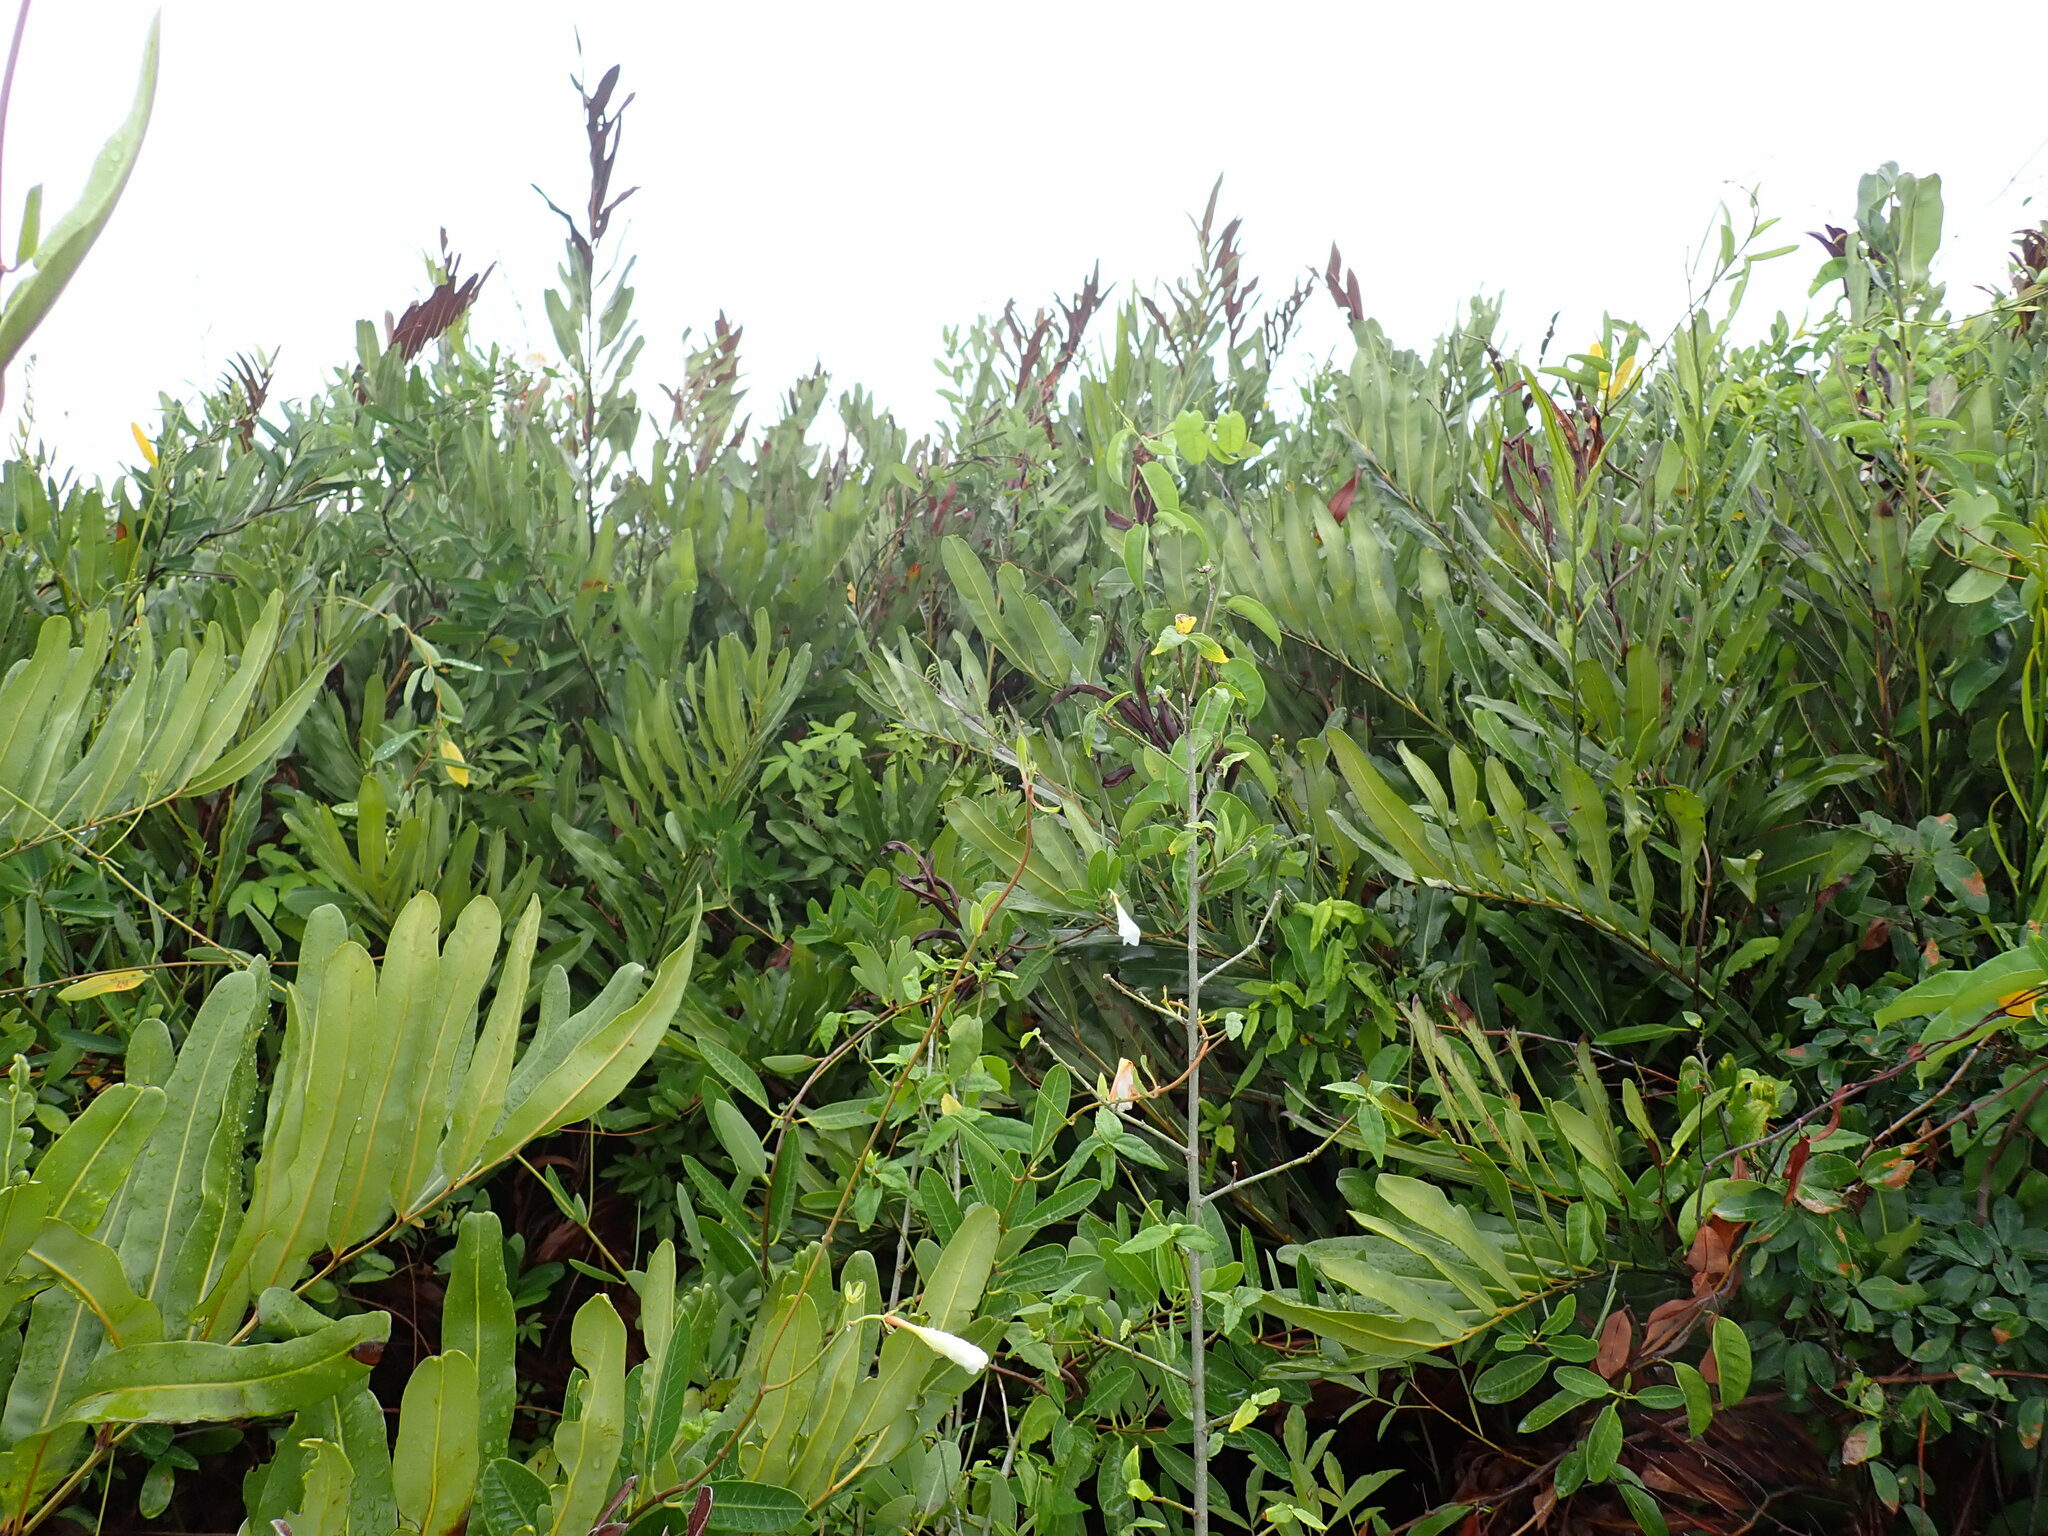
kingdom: Plantae
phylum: Tracheophyta
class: Polypodiopsida
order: Polypodiales
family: Pteridaceae
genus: Acrostichum
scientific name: Acrostichum aureum
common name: Leather fern
